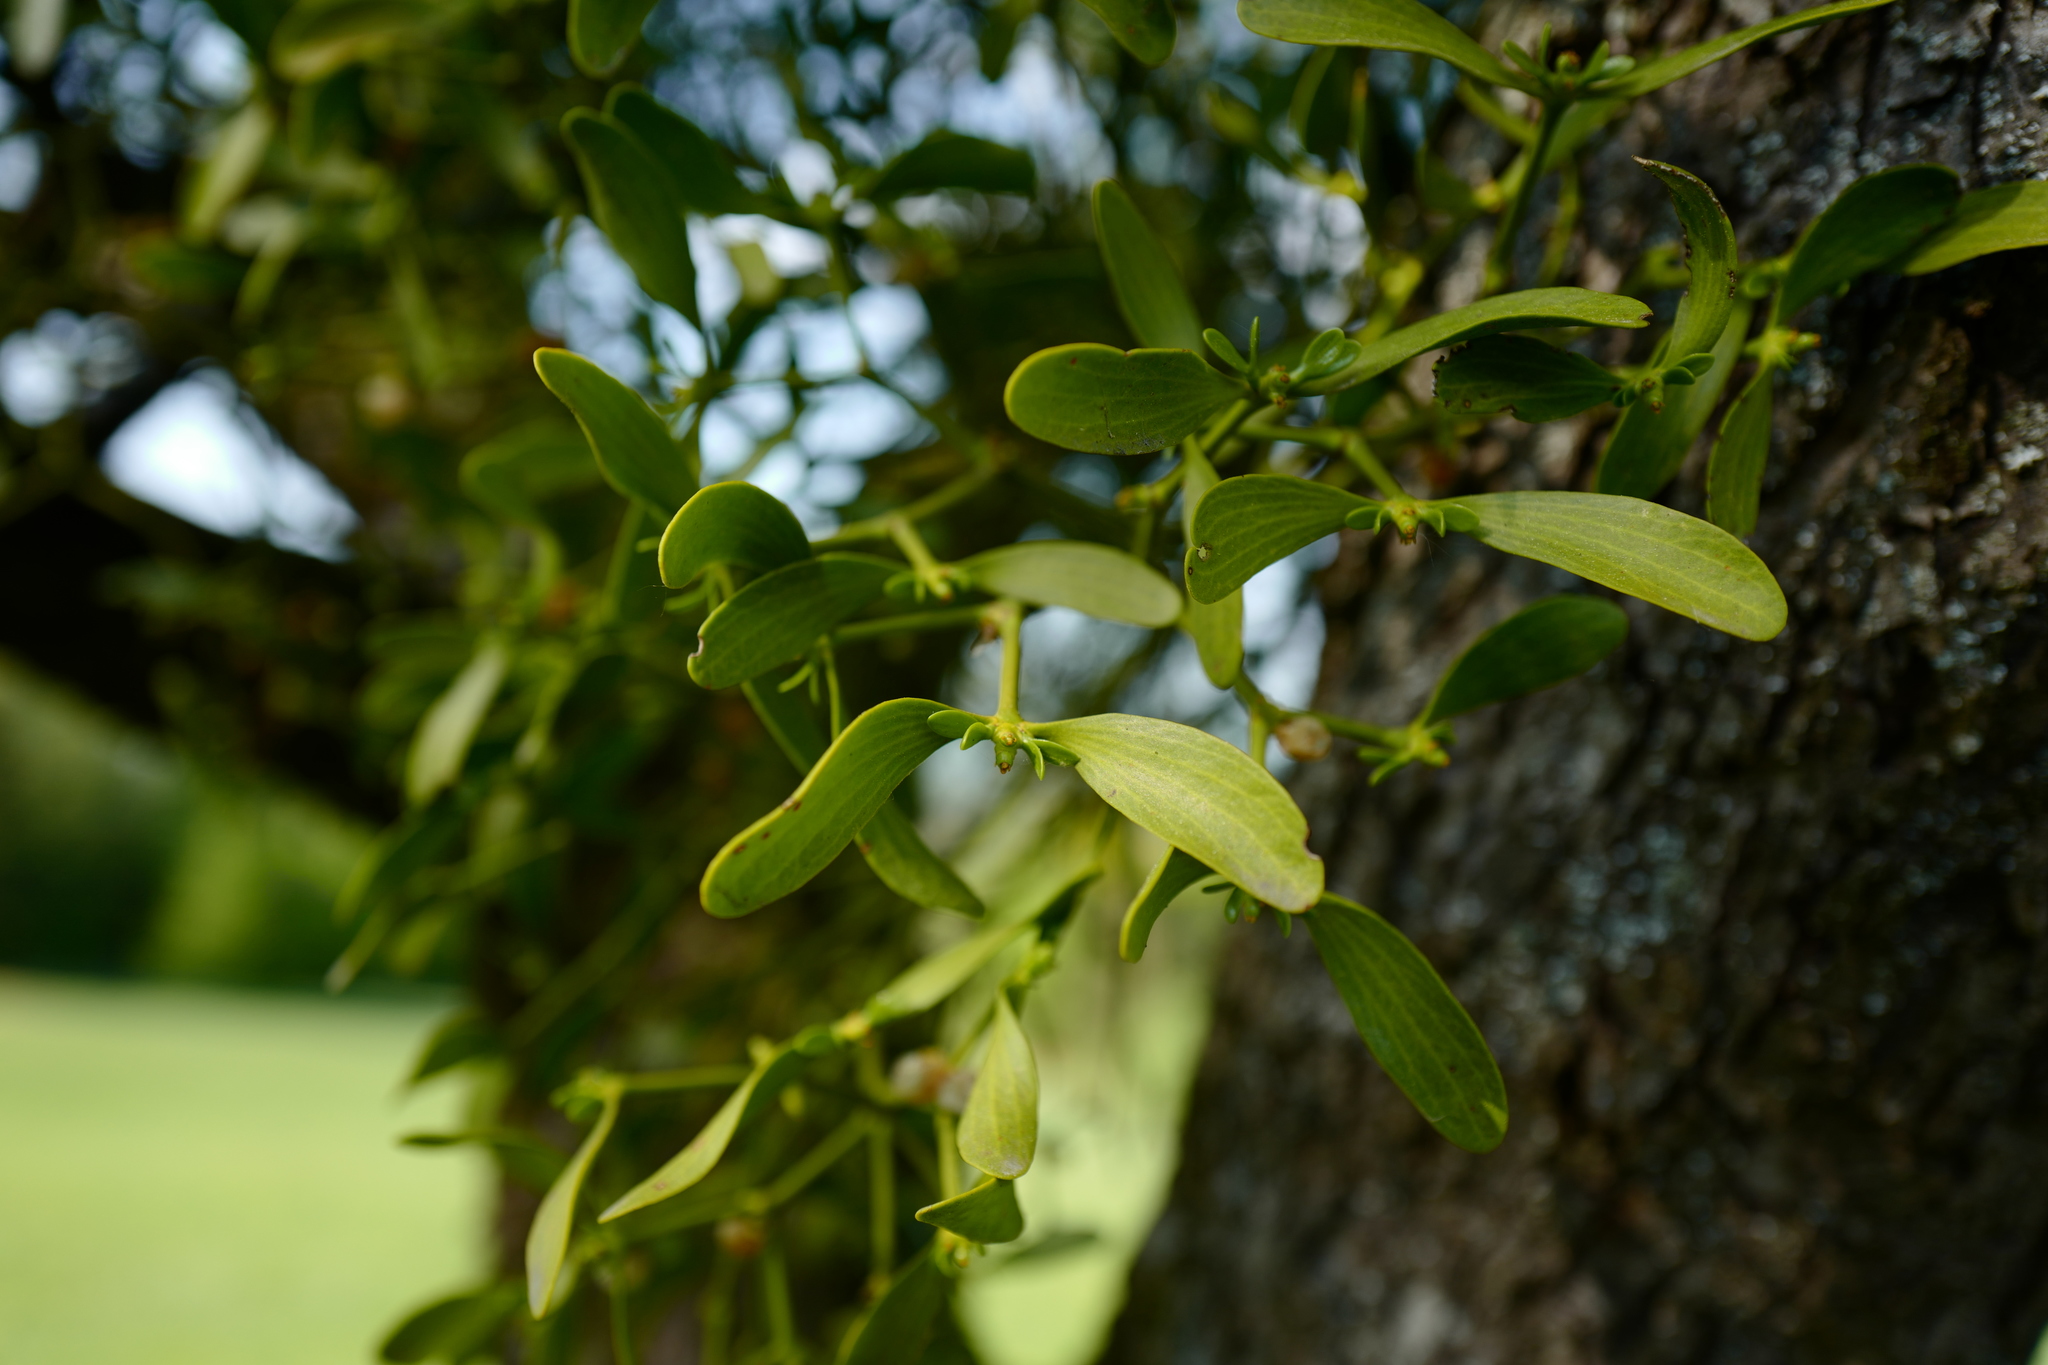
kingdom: Plantae
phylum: Tracheophyta
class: Magnoliopsida
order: Santalales
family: Viscaceae
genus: Viscum
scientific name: Viscum album
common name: Mistletoe
